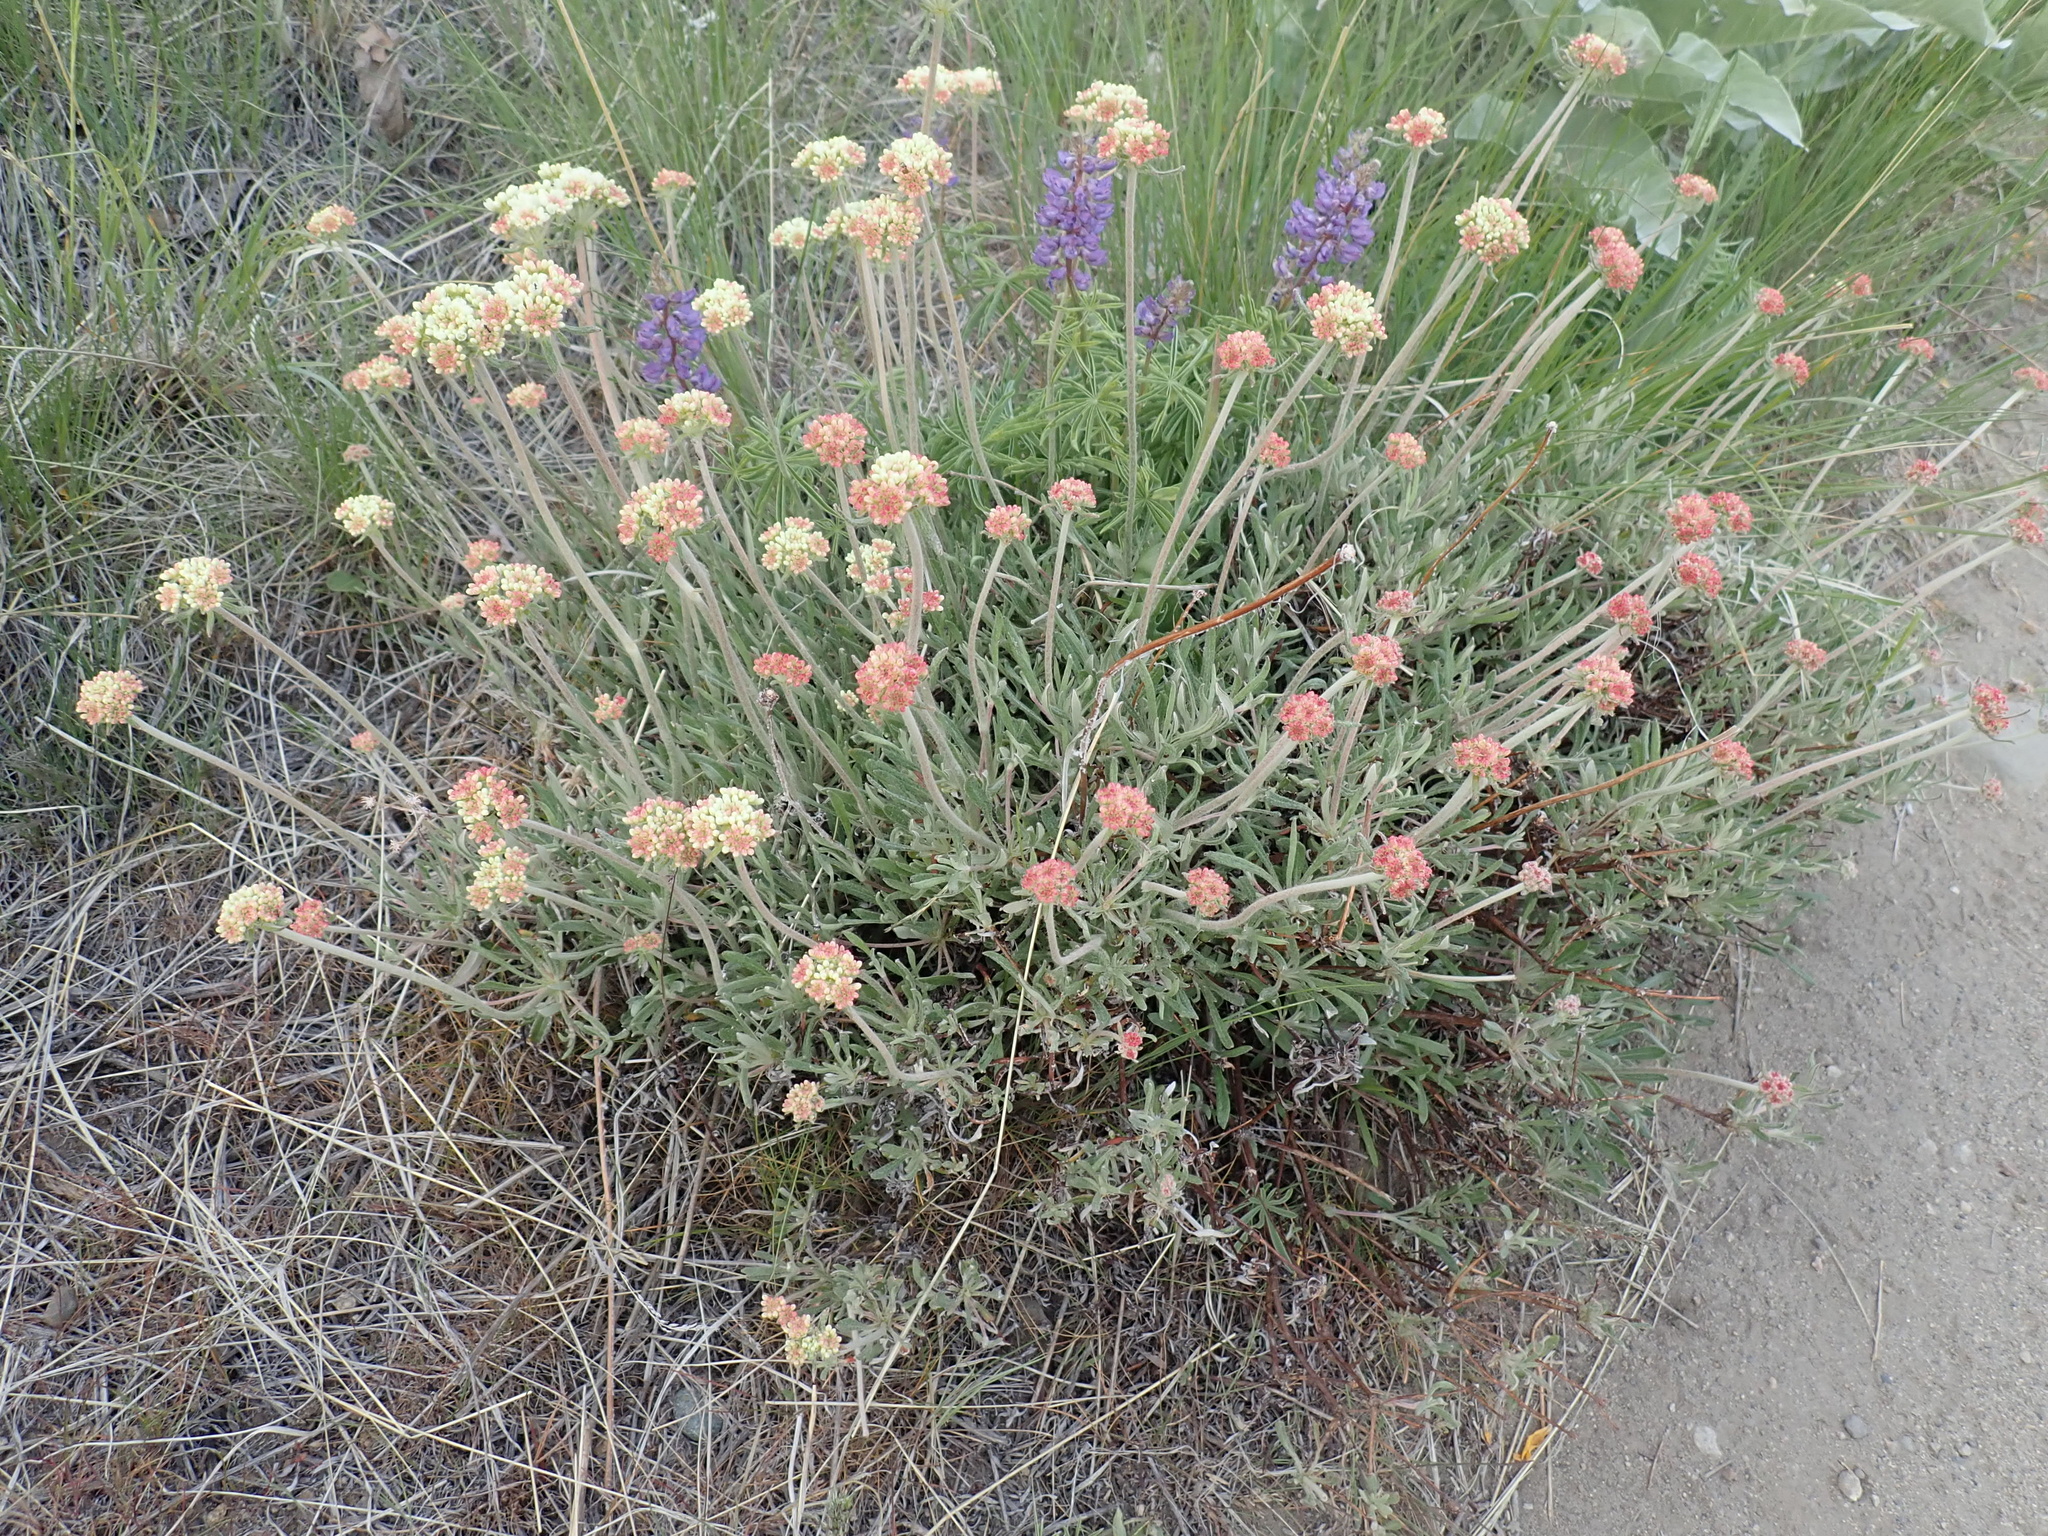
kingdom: Plantae
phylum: Tracheophyta
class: Magnoliopsida
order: Caryophyllales
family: Polygonaceae
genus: Eriogonum
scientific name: Eriogonum heracleoides
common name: Wyeth's buckwheat
